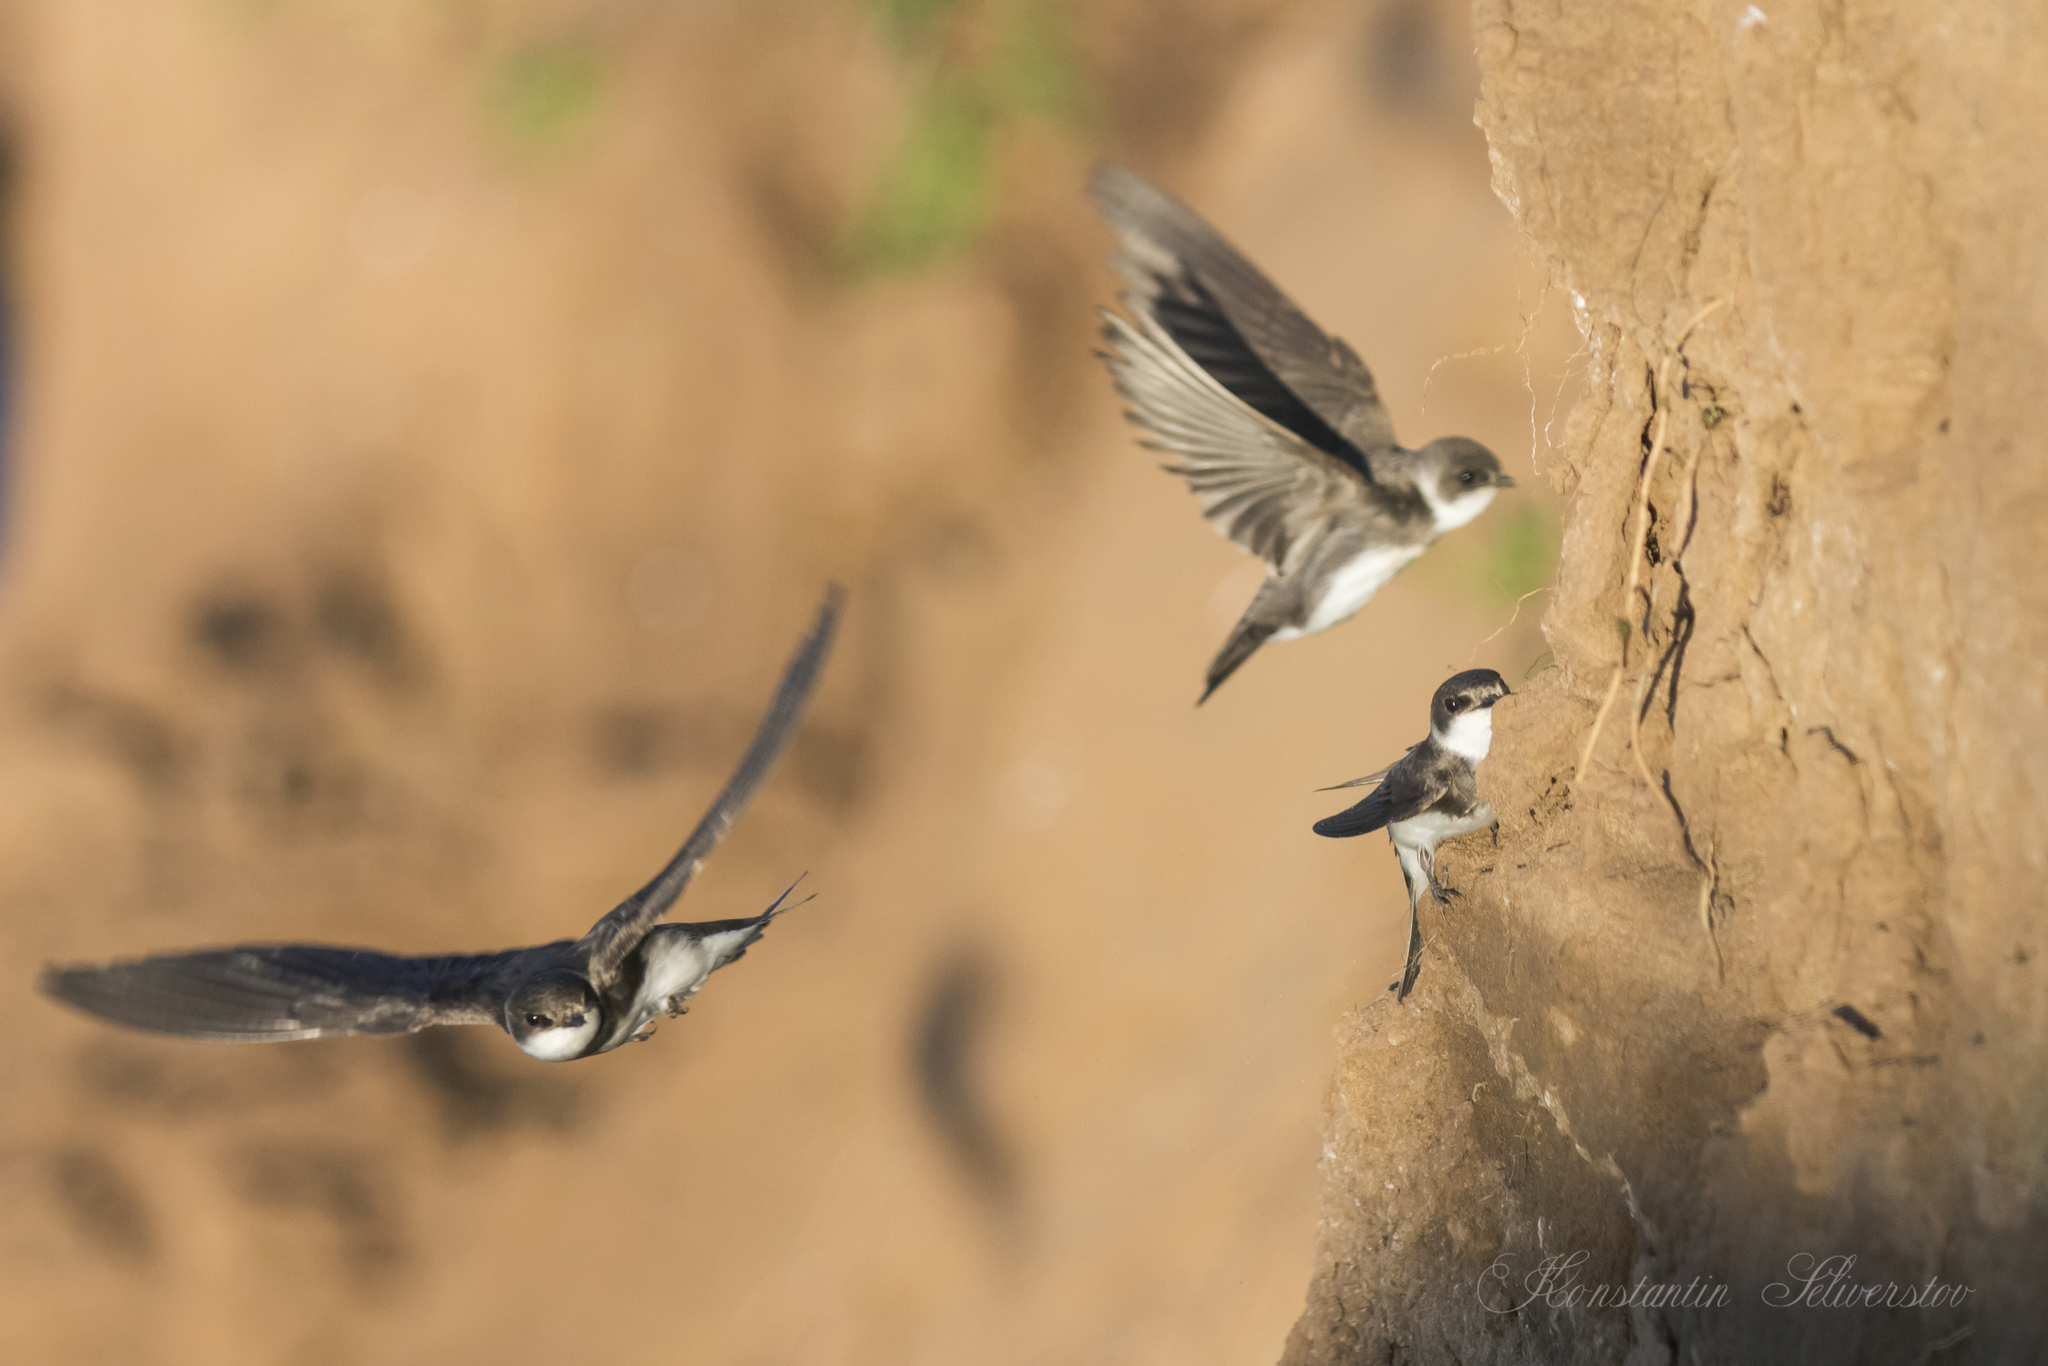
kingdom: Animalia
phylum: Chordata
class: Aves
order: Passeriformes
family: Hirundinidae
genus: Riparia
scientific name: Riparia riparia
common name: Sand martin
